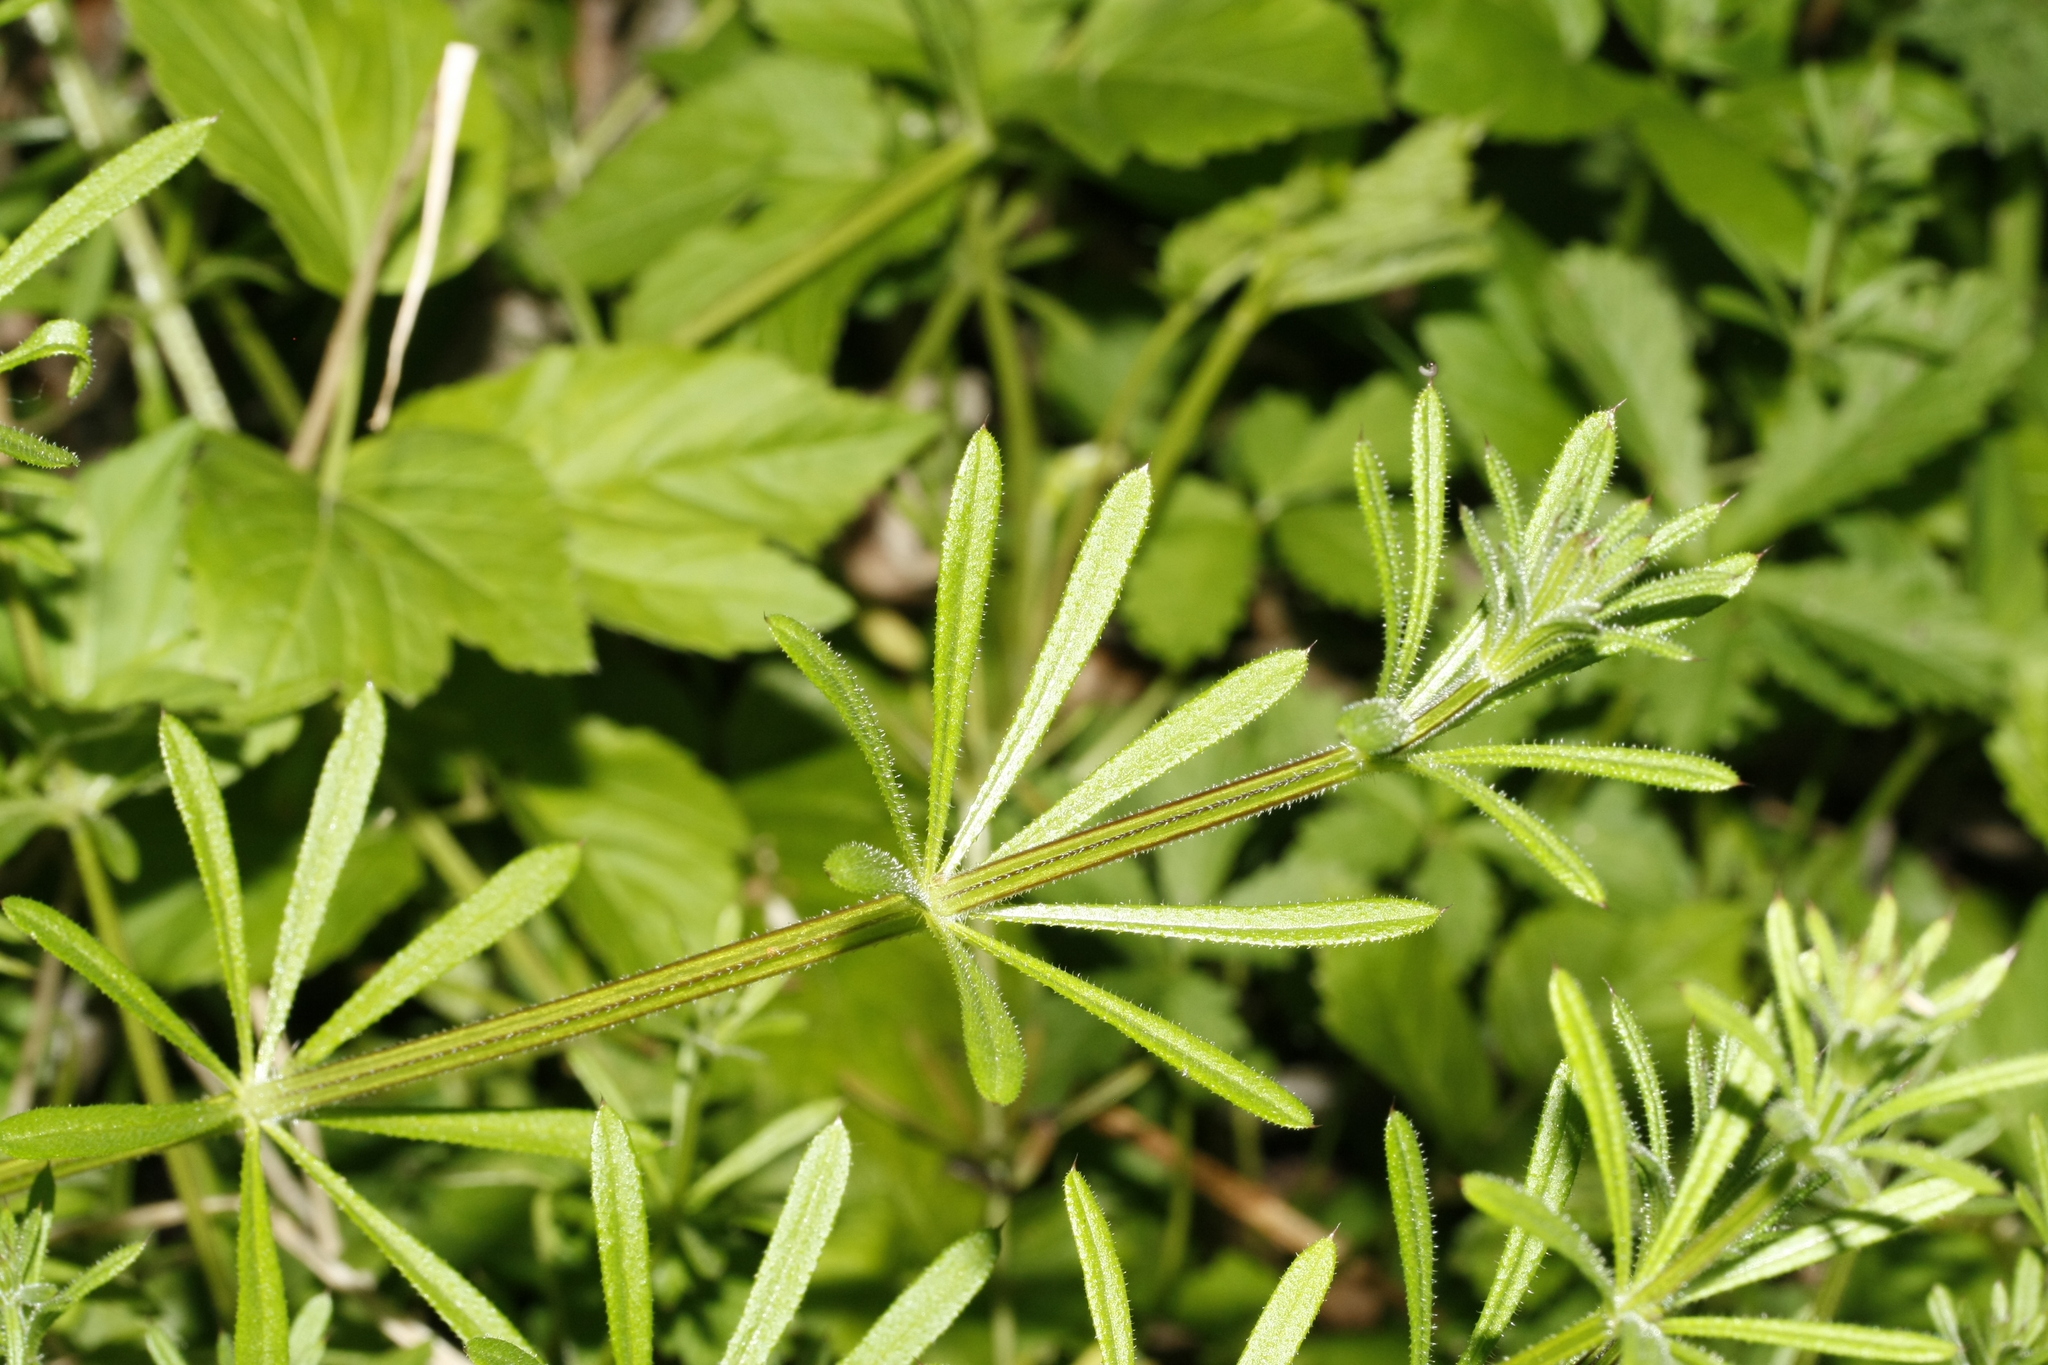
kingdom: Plantae
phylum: Tracheophyta
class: Magnoliopsida
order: Gentianales
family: Rubiaceae
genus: Galium
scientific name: Galium aparine
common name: Cleavers
